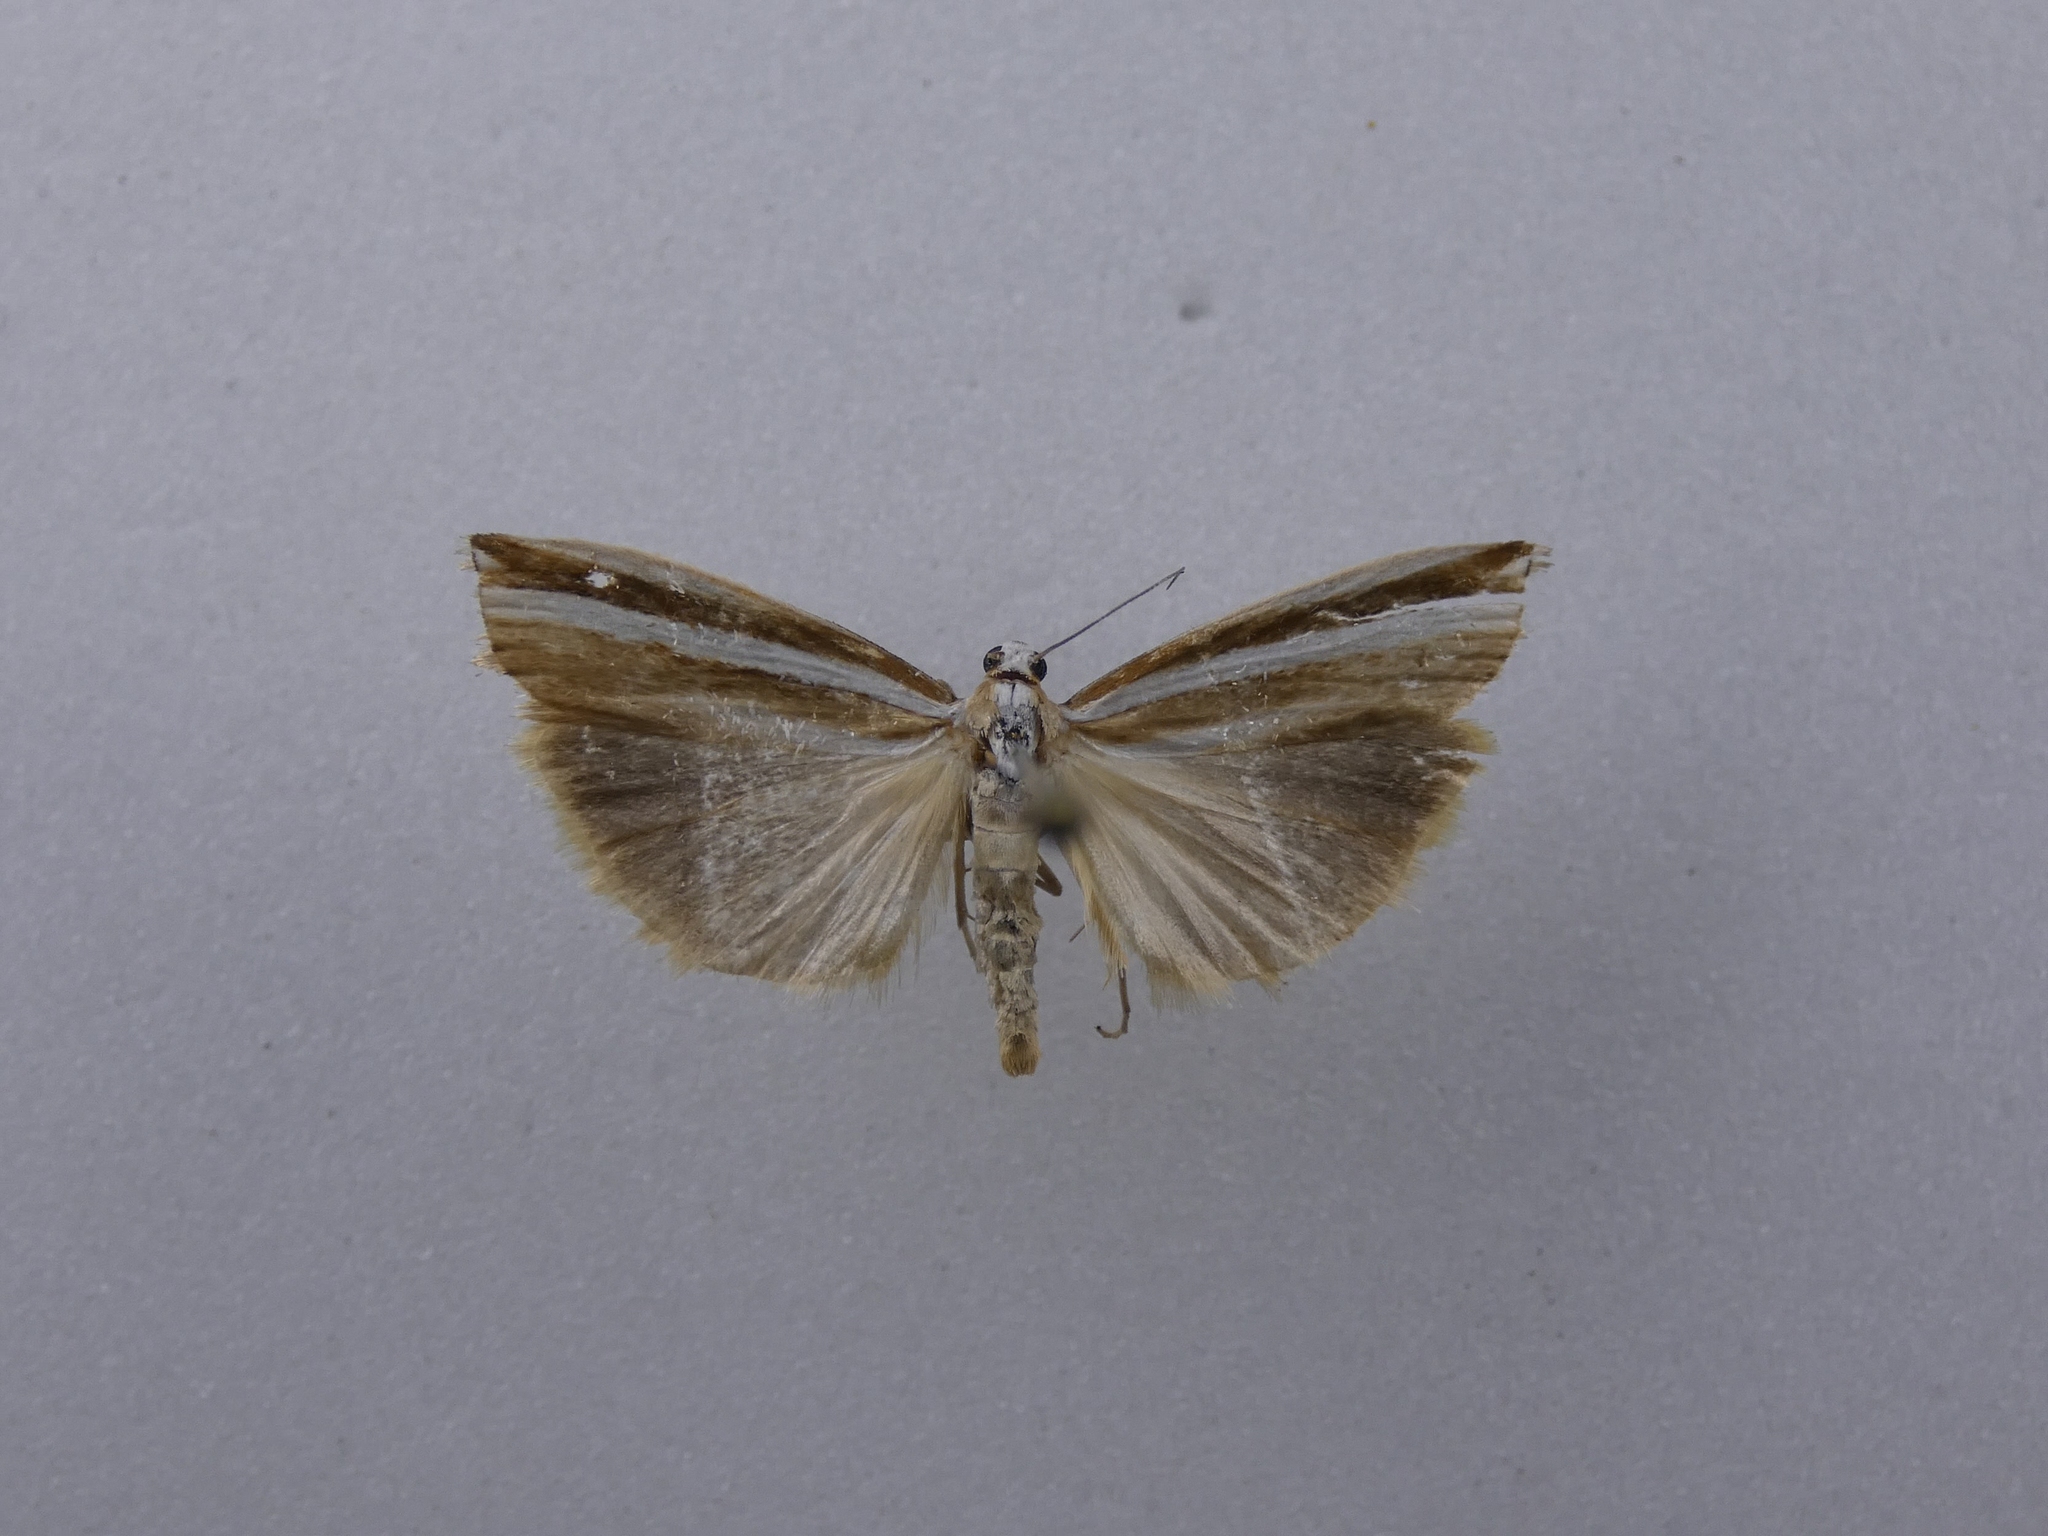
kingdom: Animalia
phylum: Arthropoda
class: Insecta
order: Lepidoptera
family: Crambidae
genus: Orocrambus
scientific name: Orocrambus apicellus
